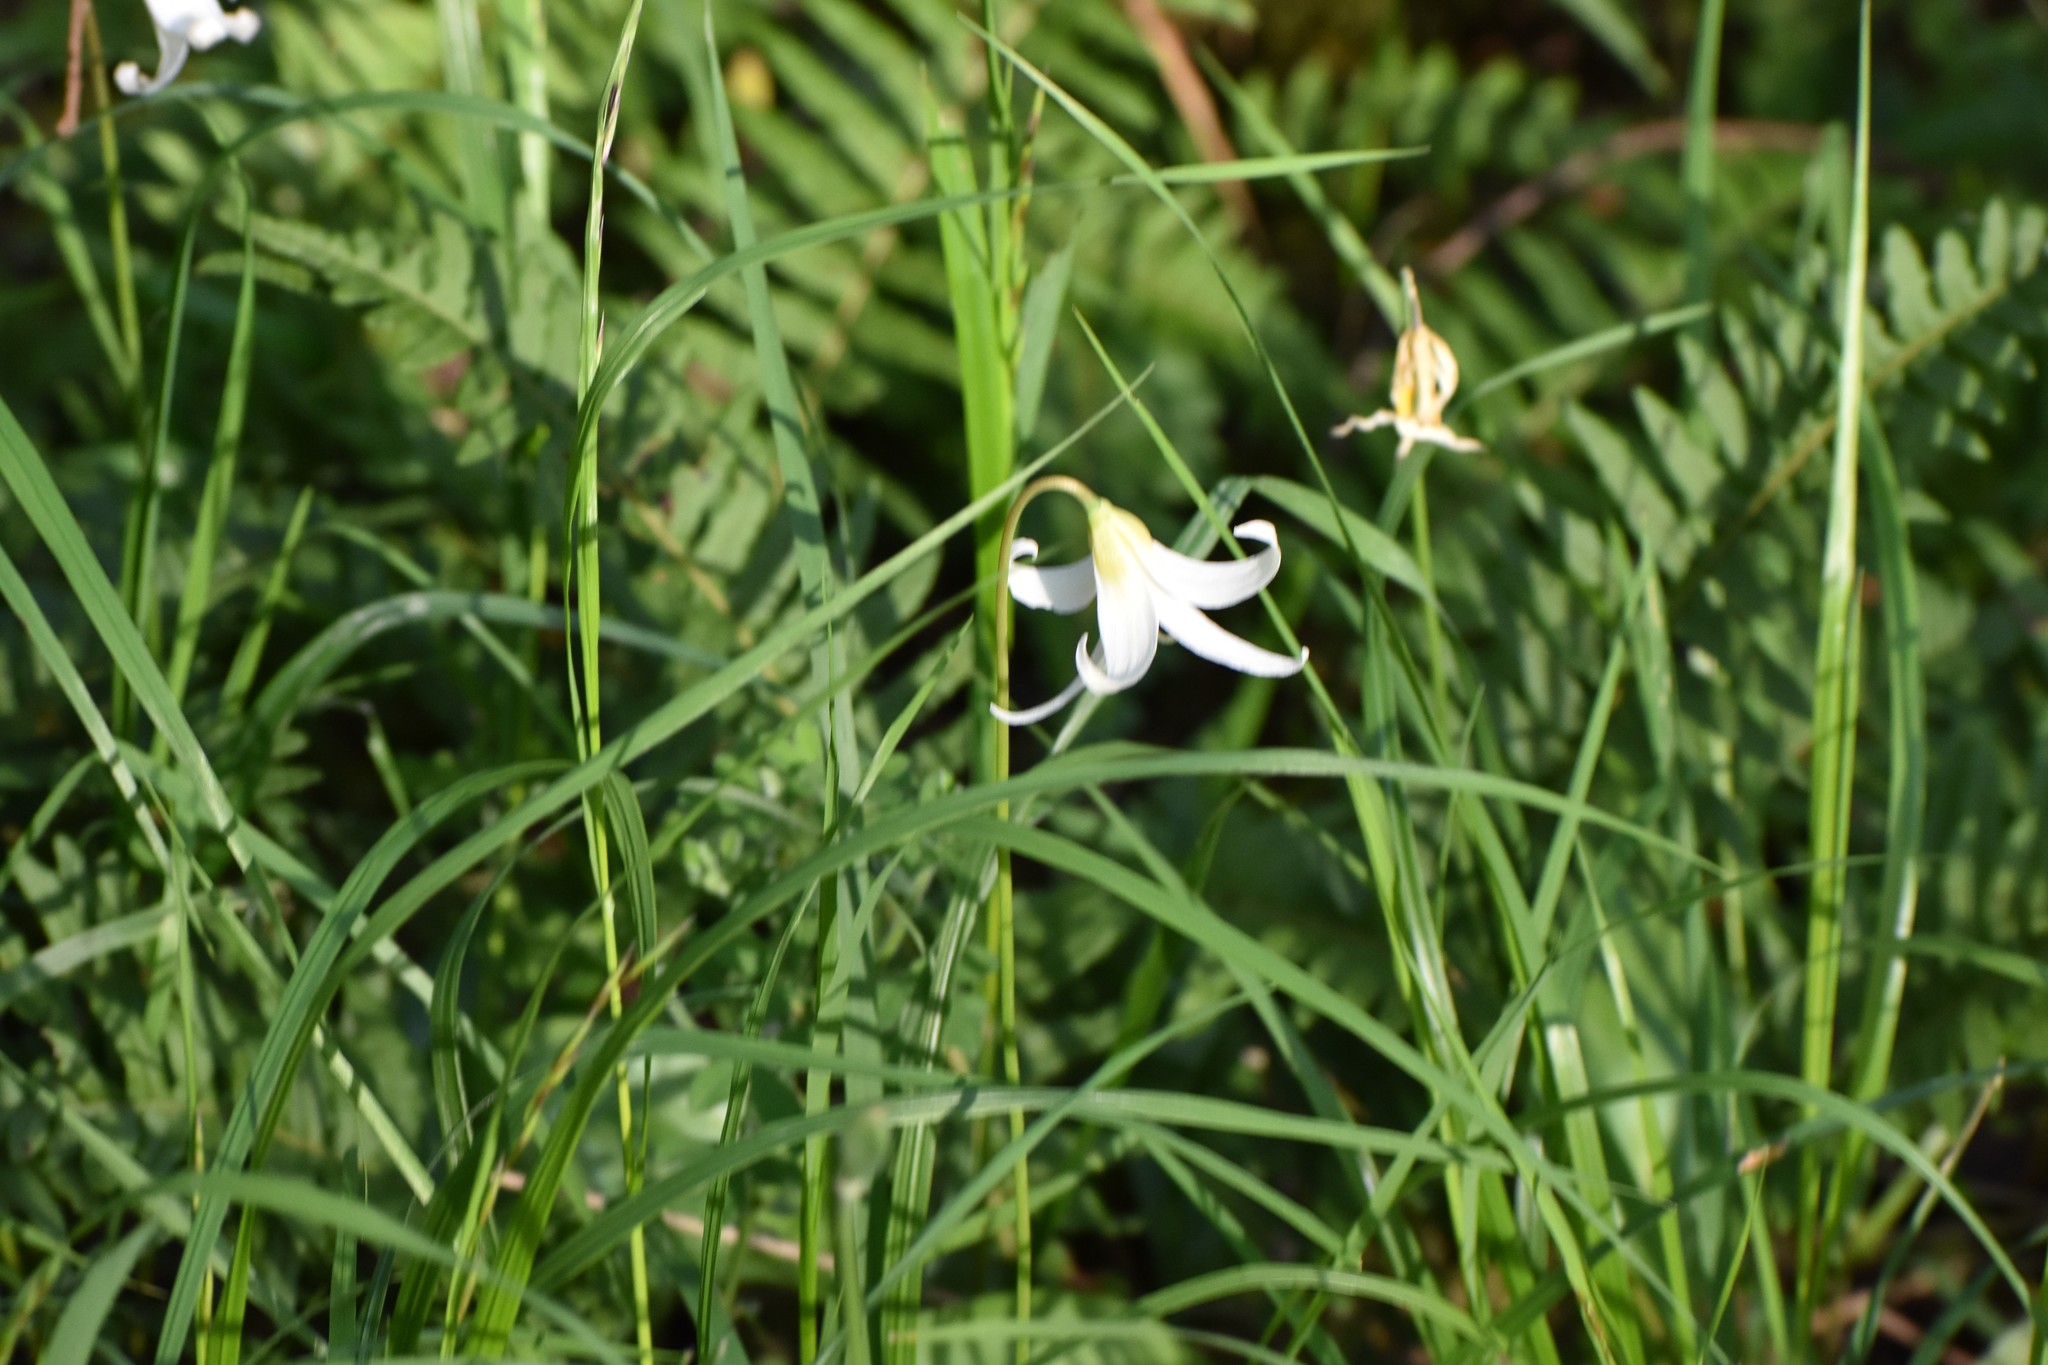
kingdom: Plantae
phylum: Tracheophyta
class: Liliopsida
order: Liliales
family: Liliaceae
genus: Erythronium
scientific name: Erythronium oregonum
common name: Giant adder's-tongue
